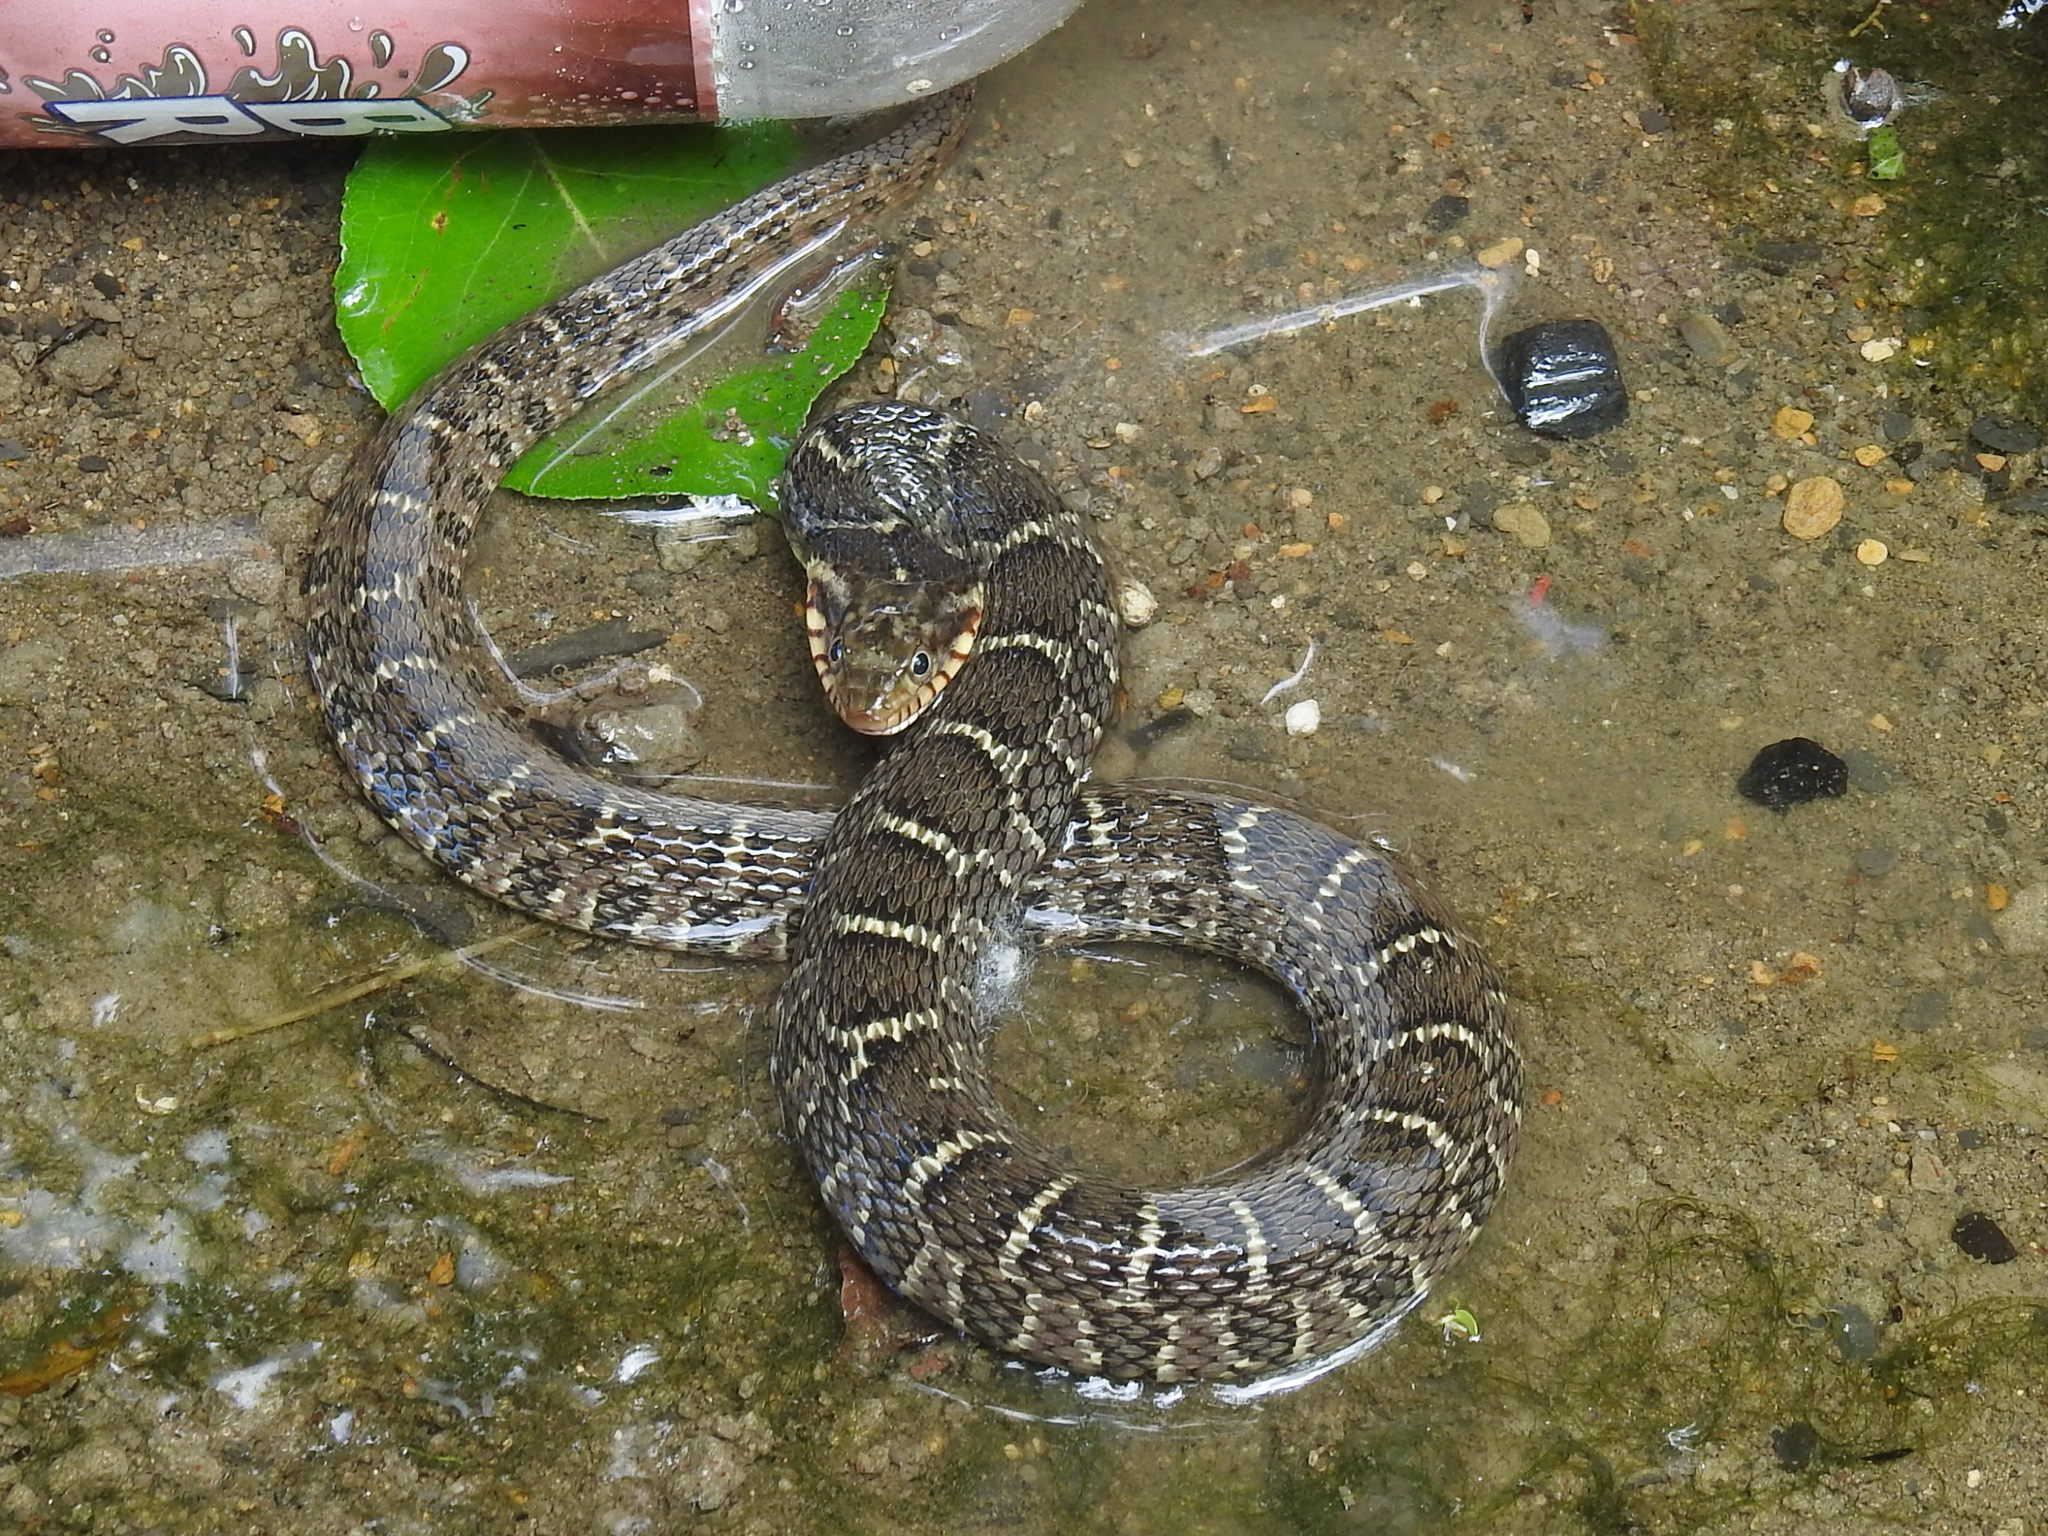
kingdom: Animalia
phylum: Chordata
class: Squamata
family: Colubridae
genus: Nerodia
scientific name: Nerodia erythrogaster
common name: Plainbelly water snake
